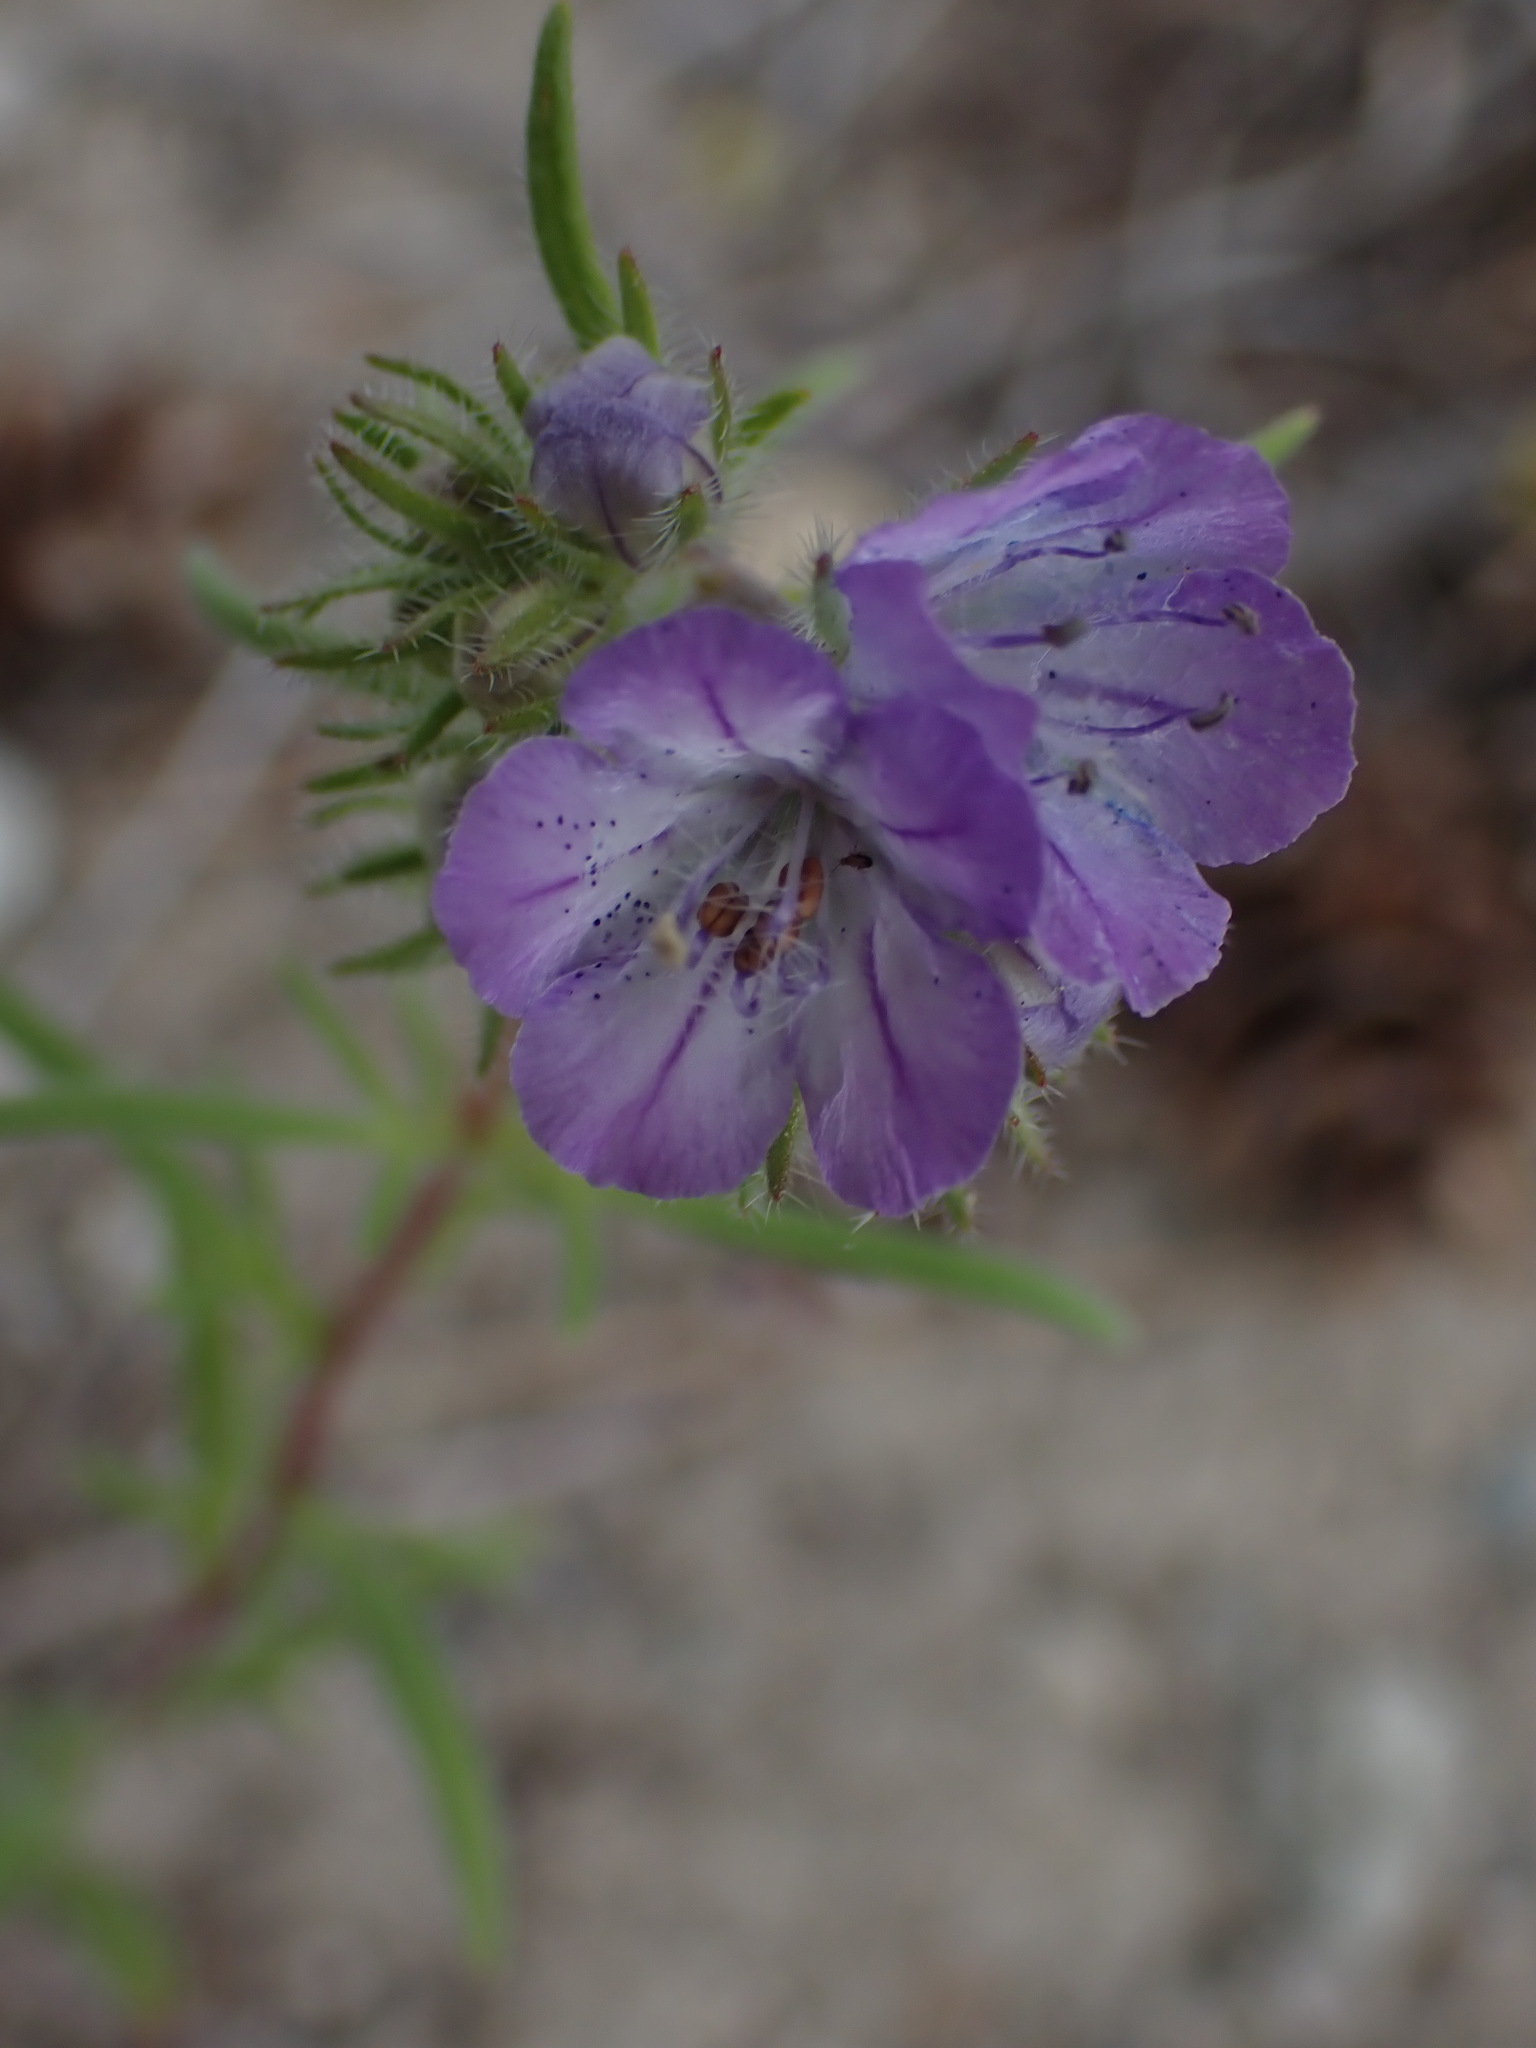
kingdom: Plantae
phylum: Tracheophyta
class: Magnoliopsida
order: Boraginales
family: Hydrophyllaceae
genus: Phacelia
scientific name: Phacelia linearis
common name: Linear-leaved phacelia
